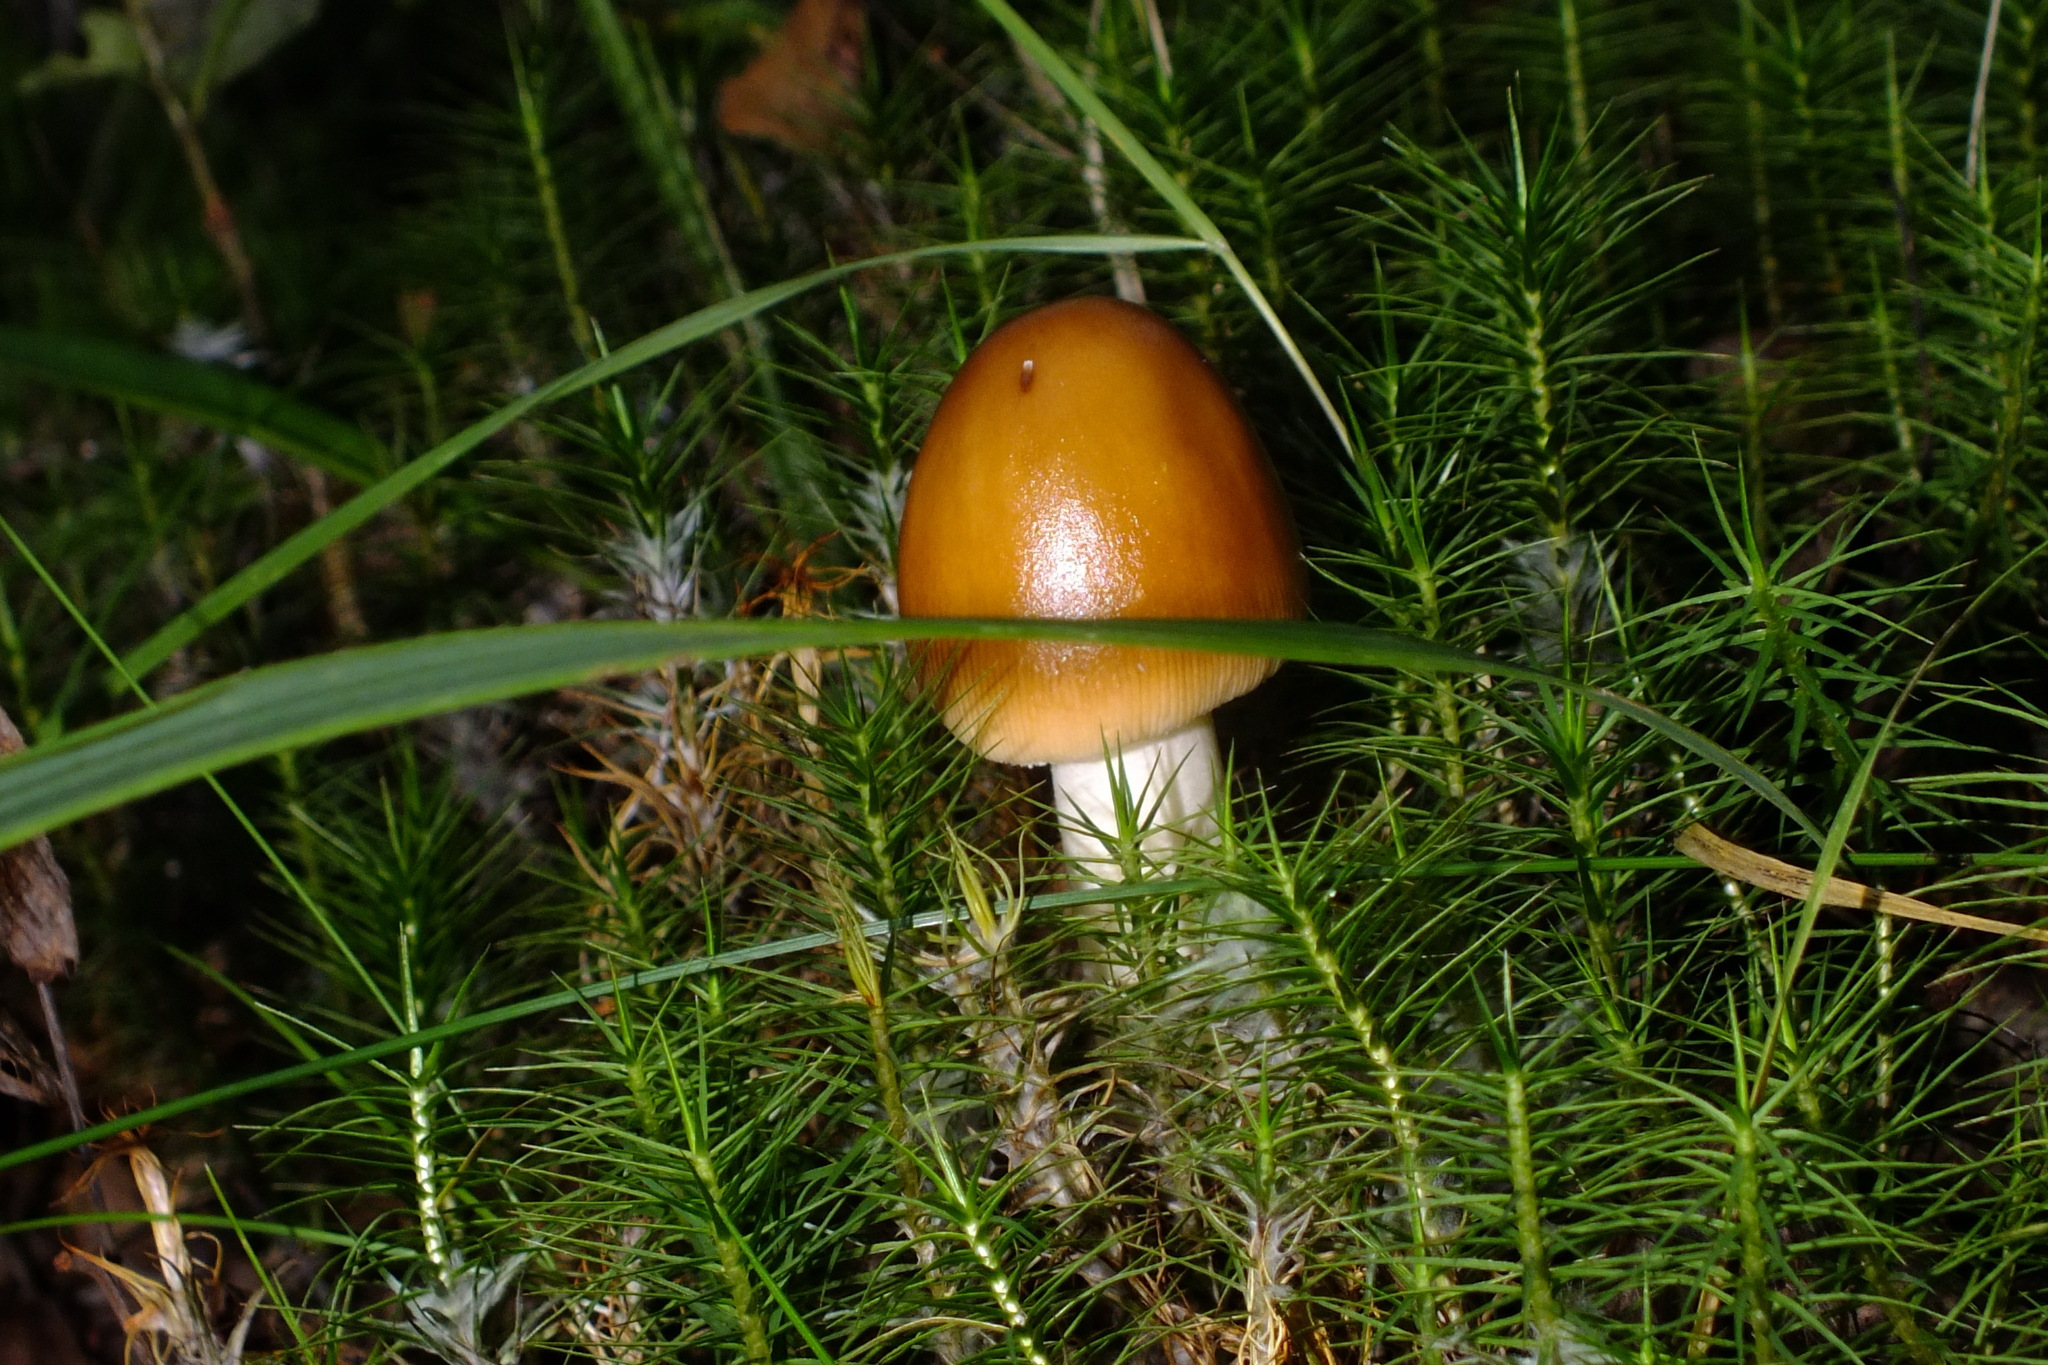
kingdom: Fungi
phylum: Basidiomycota
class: Agaricomycetes
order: Agaricales
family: Amanitaceae
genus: Amanita
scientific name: Amanita fulva
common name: Tawny grisette
